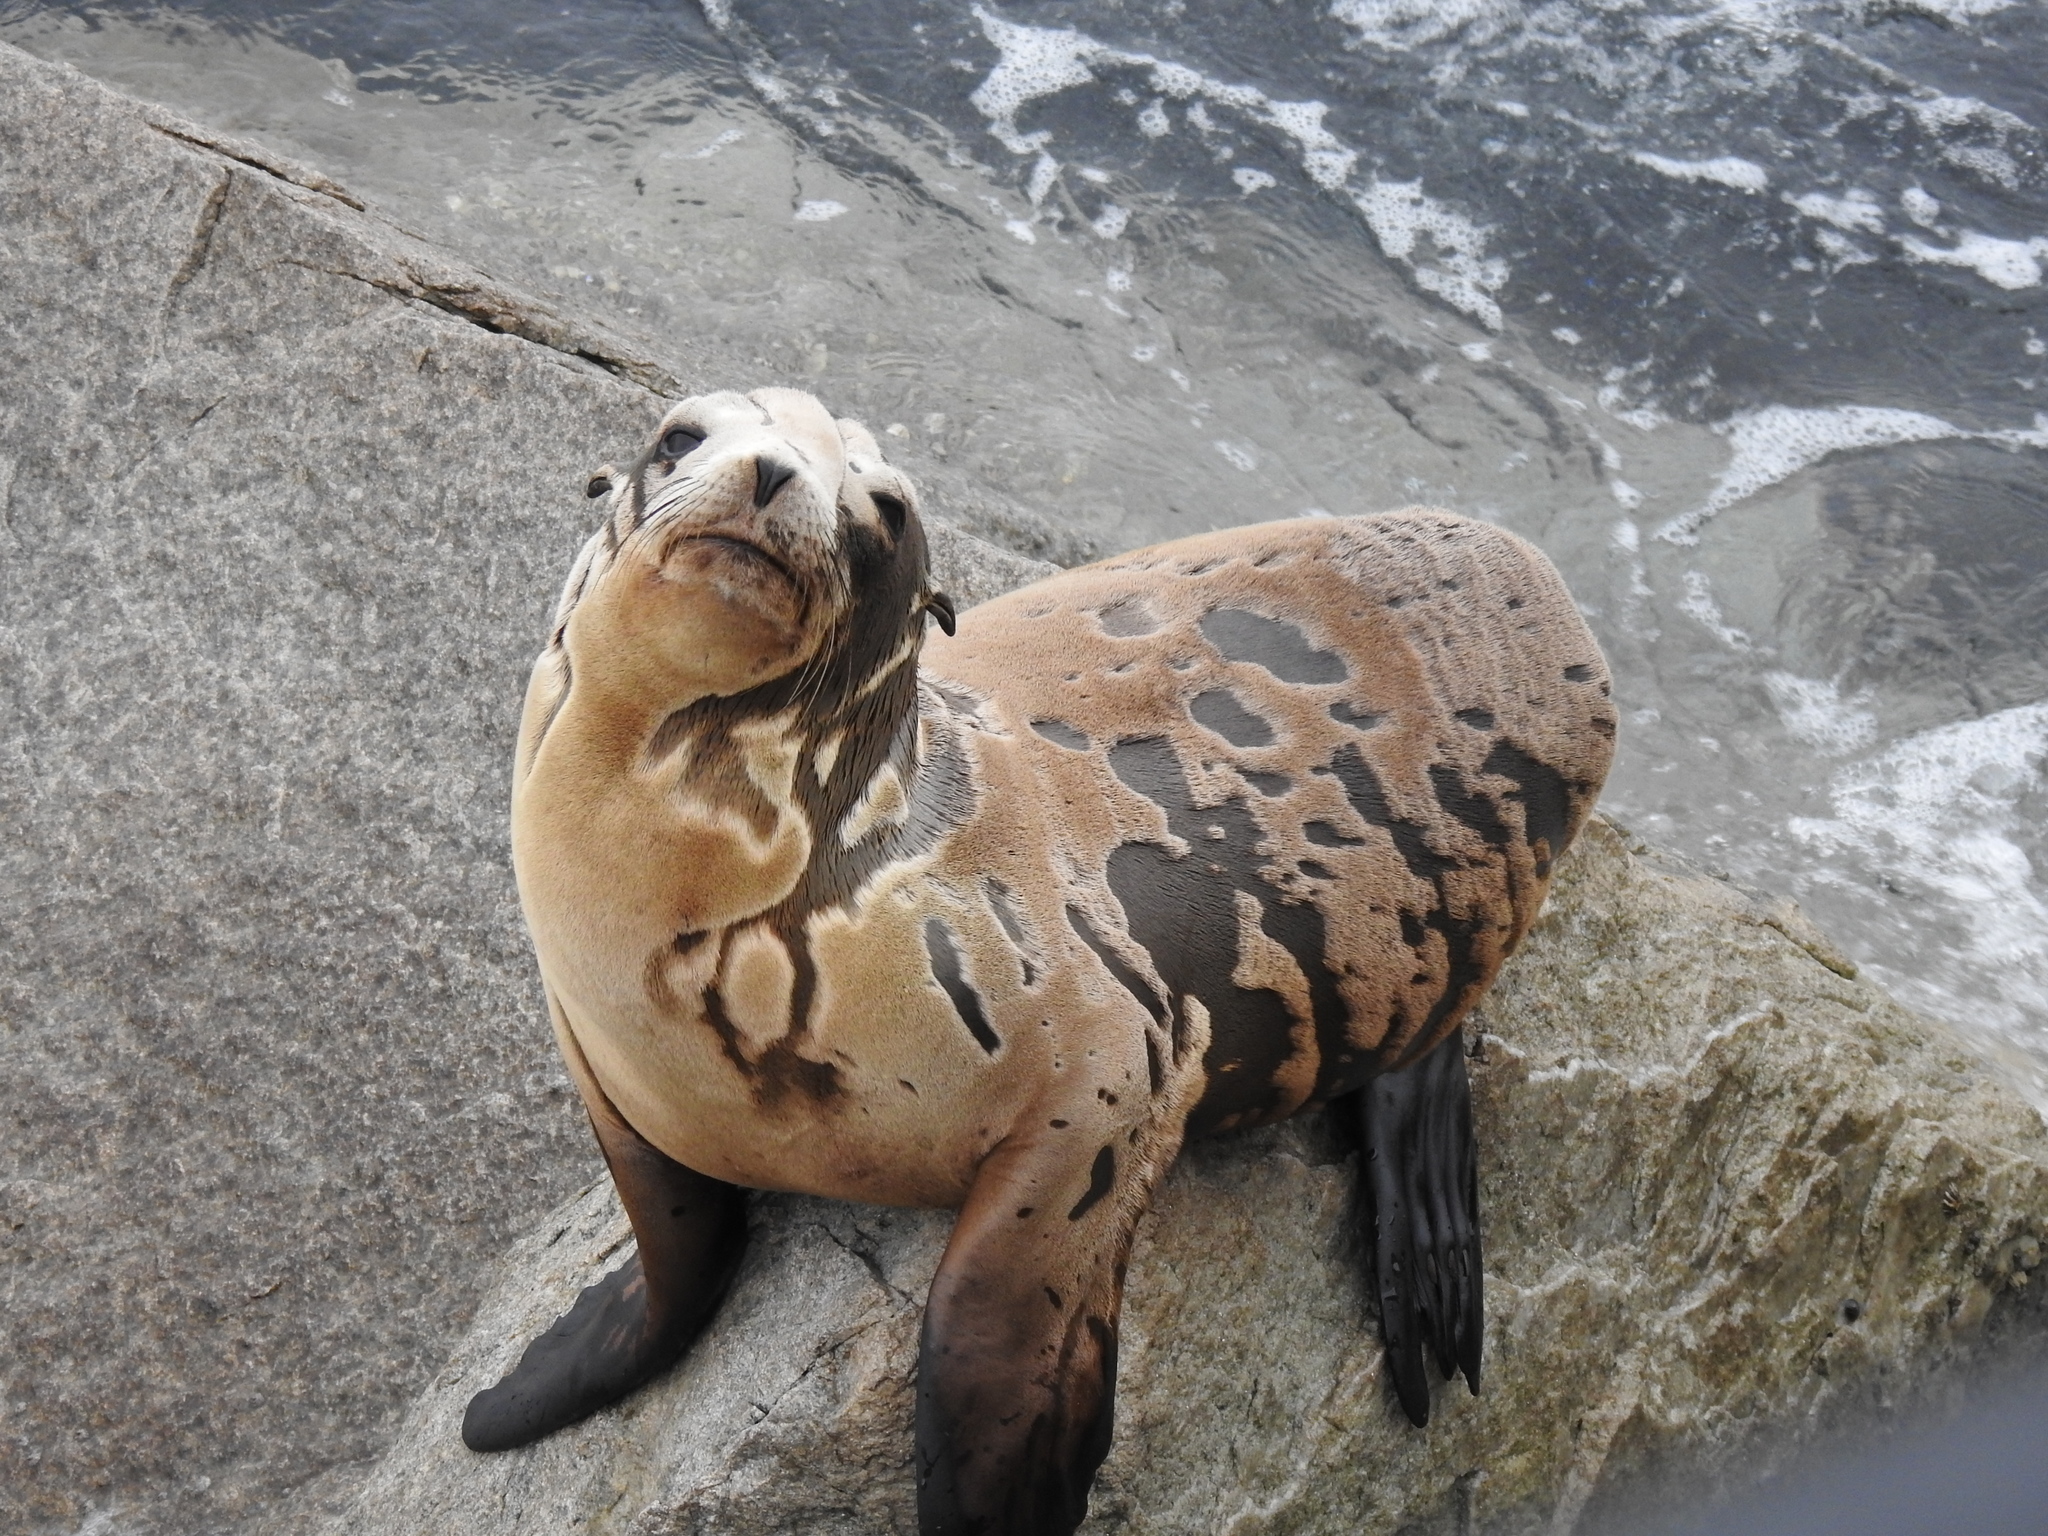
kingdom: Animalia
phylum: Chordata
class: Mammalia
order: Carnivora
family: Otariidae
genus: Zalophus
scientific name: Zalophus californianus
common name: California sea lion
